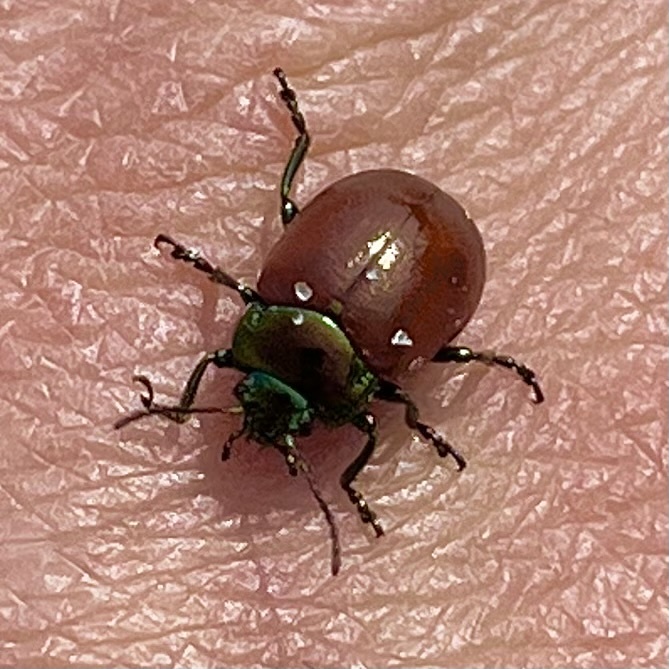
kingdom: Animalia
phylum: Arthropoda
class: Insecta
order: Coleoptera
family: Chrysomelidae
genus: Chrysomela
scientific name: Chrysomela polita
